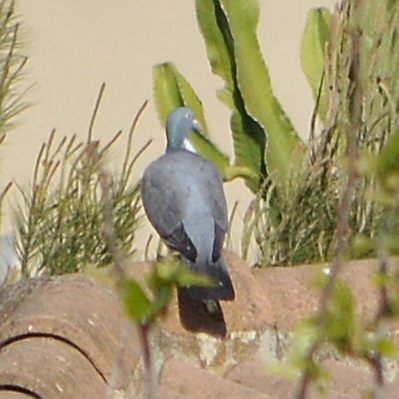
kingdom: Animalia
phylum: Chordata
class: Aves
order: Columbiformes
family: Columbidae
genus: Columba
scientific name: Columba palumbus
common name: Common wood pigeon
